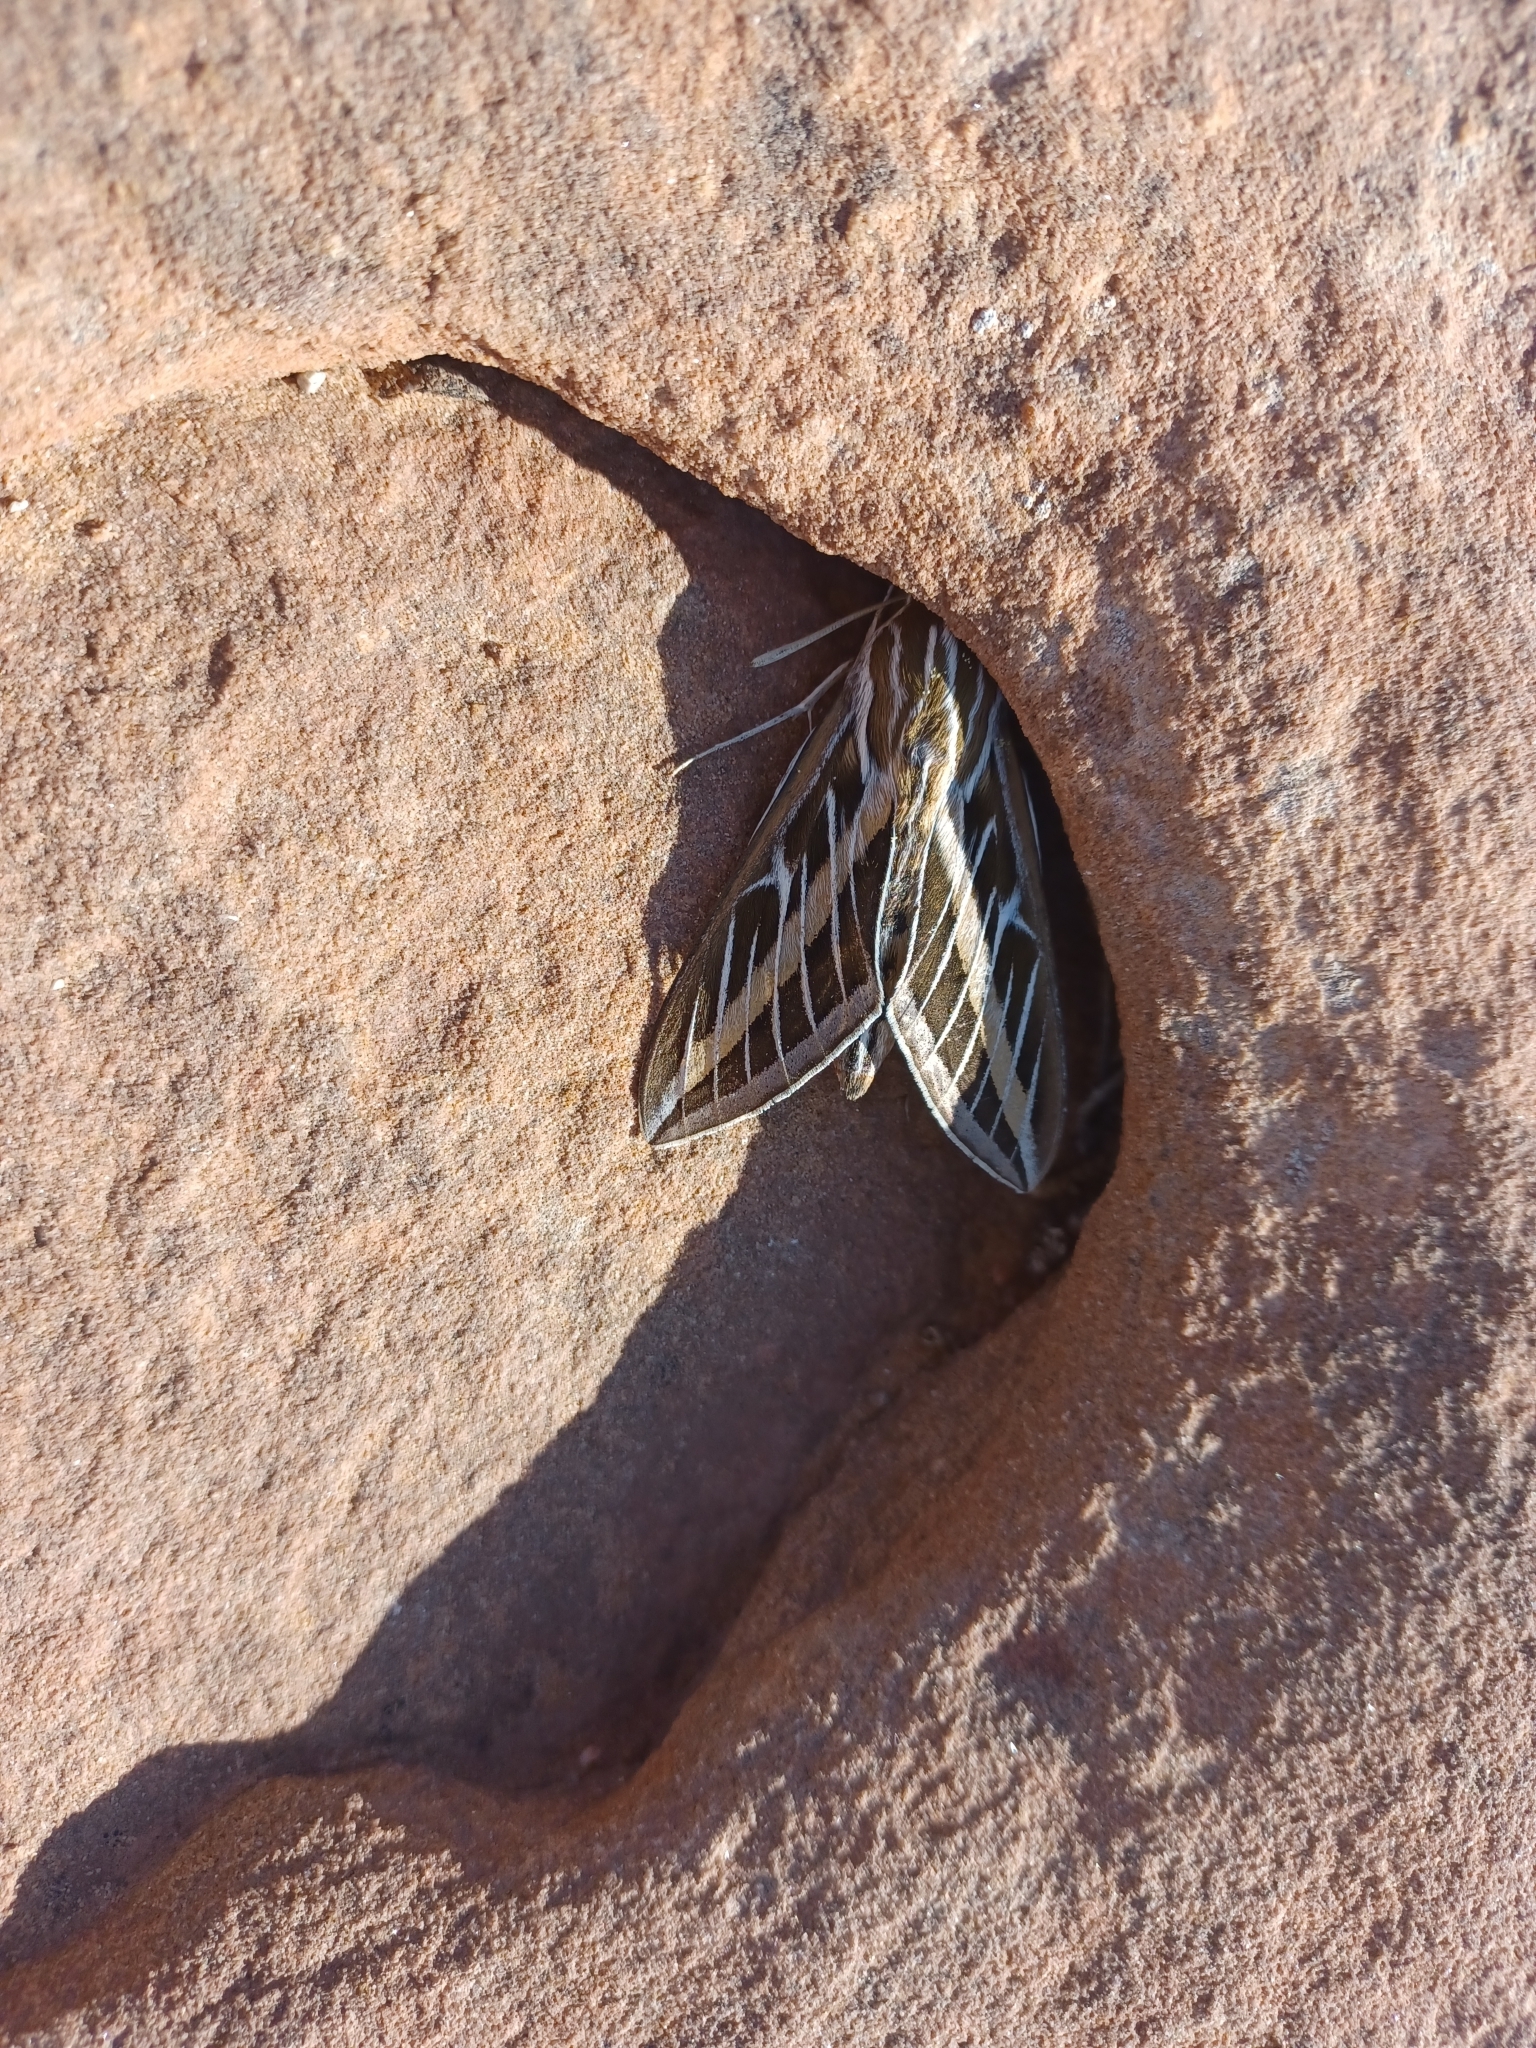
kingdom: Animalia
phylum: Arthropoda
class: Insecta
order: Lepidoptera
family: Sphingidae
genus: Hyles
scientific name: Hyles lineata
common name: White-lined sphinx
